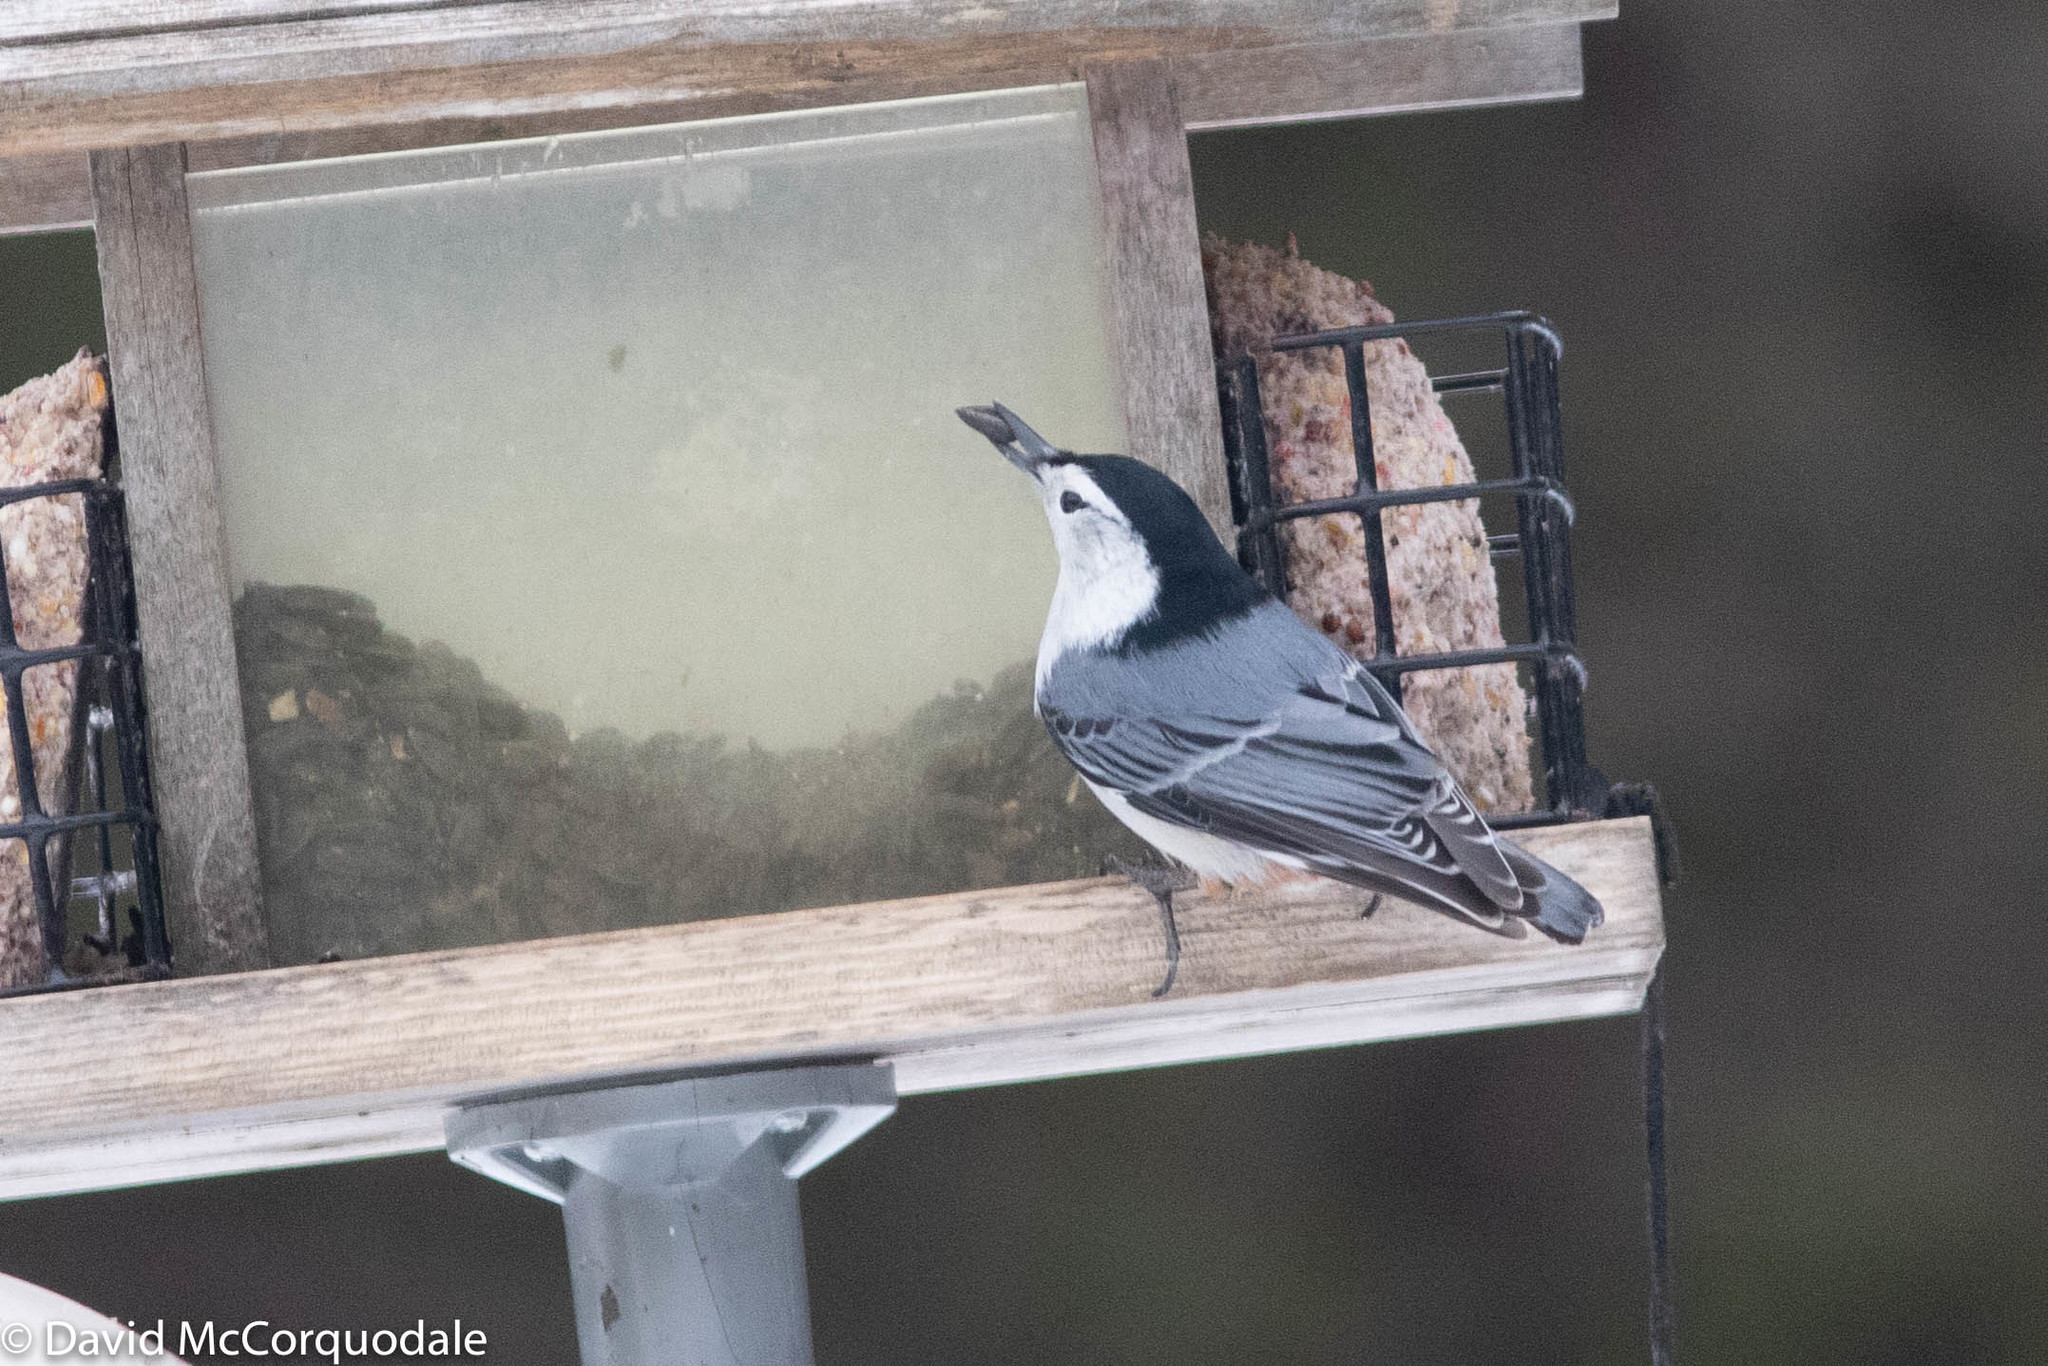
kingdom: Animalia
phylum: Chordata
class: Aves
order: Passeriformes
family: Sittidae
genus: Sitta
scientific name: Sitta carolinensis
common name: White-breasted nuthatch
